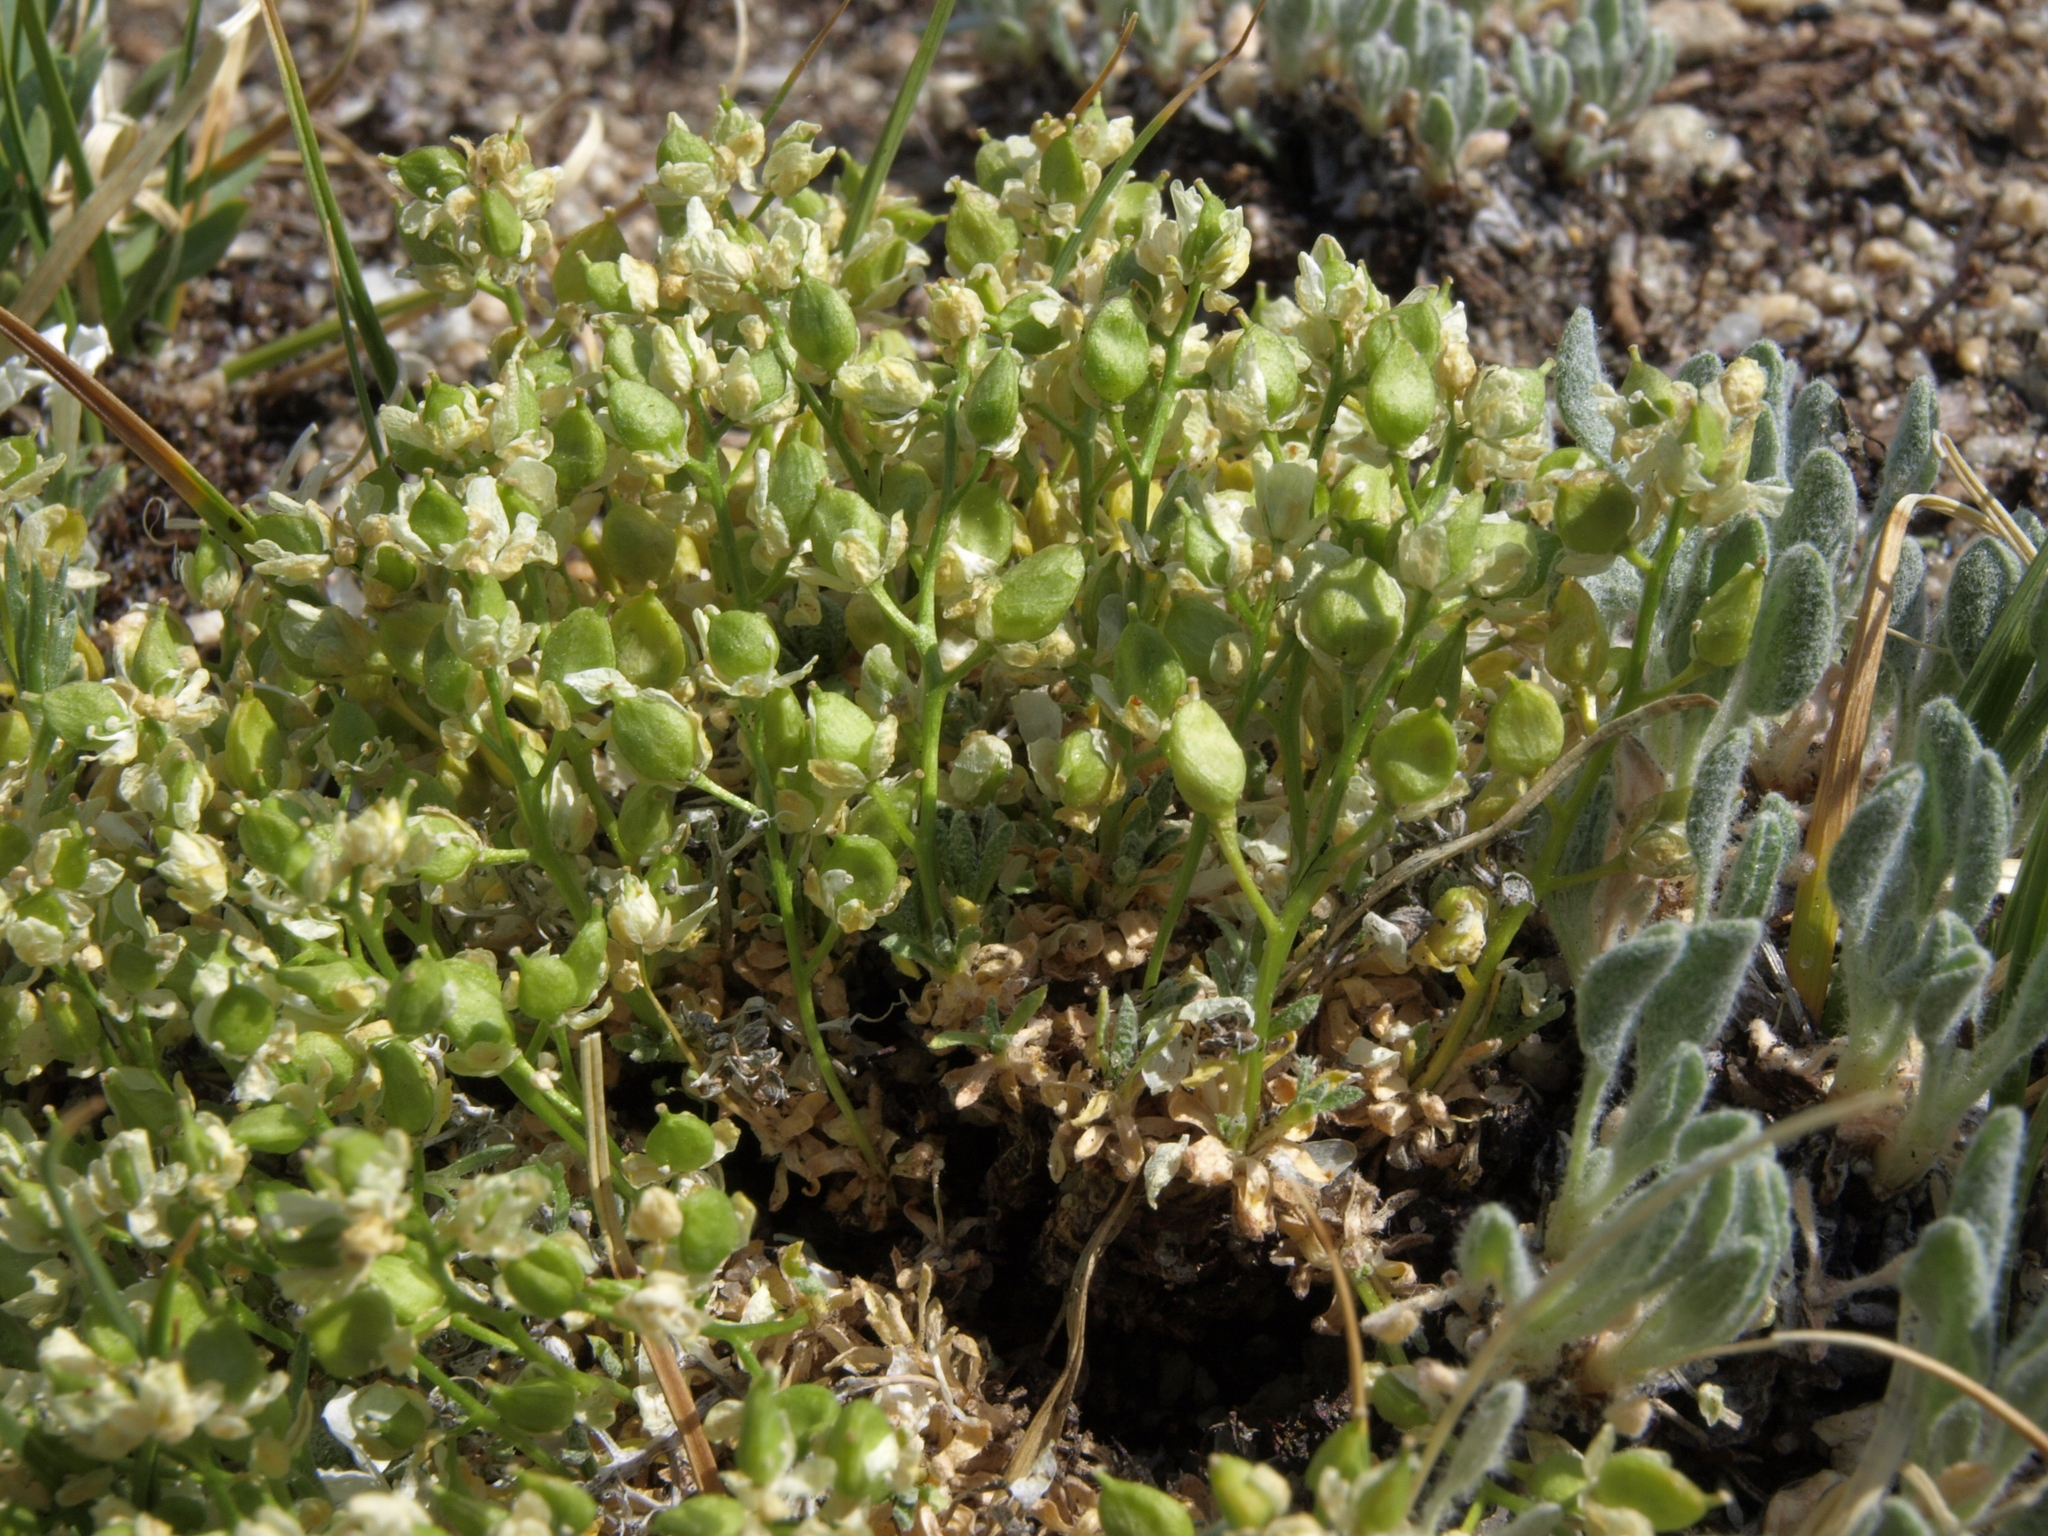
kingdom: Plantae
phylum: Tracheophyta
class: Magnoliopsida
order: Brassicales
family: Brassicaceae
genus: Draba
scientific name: Draba sphaeroides
